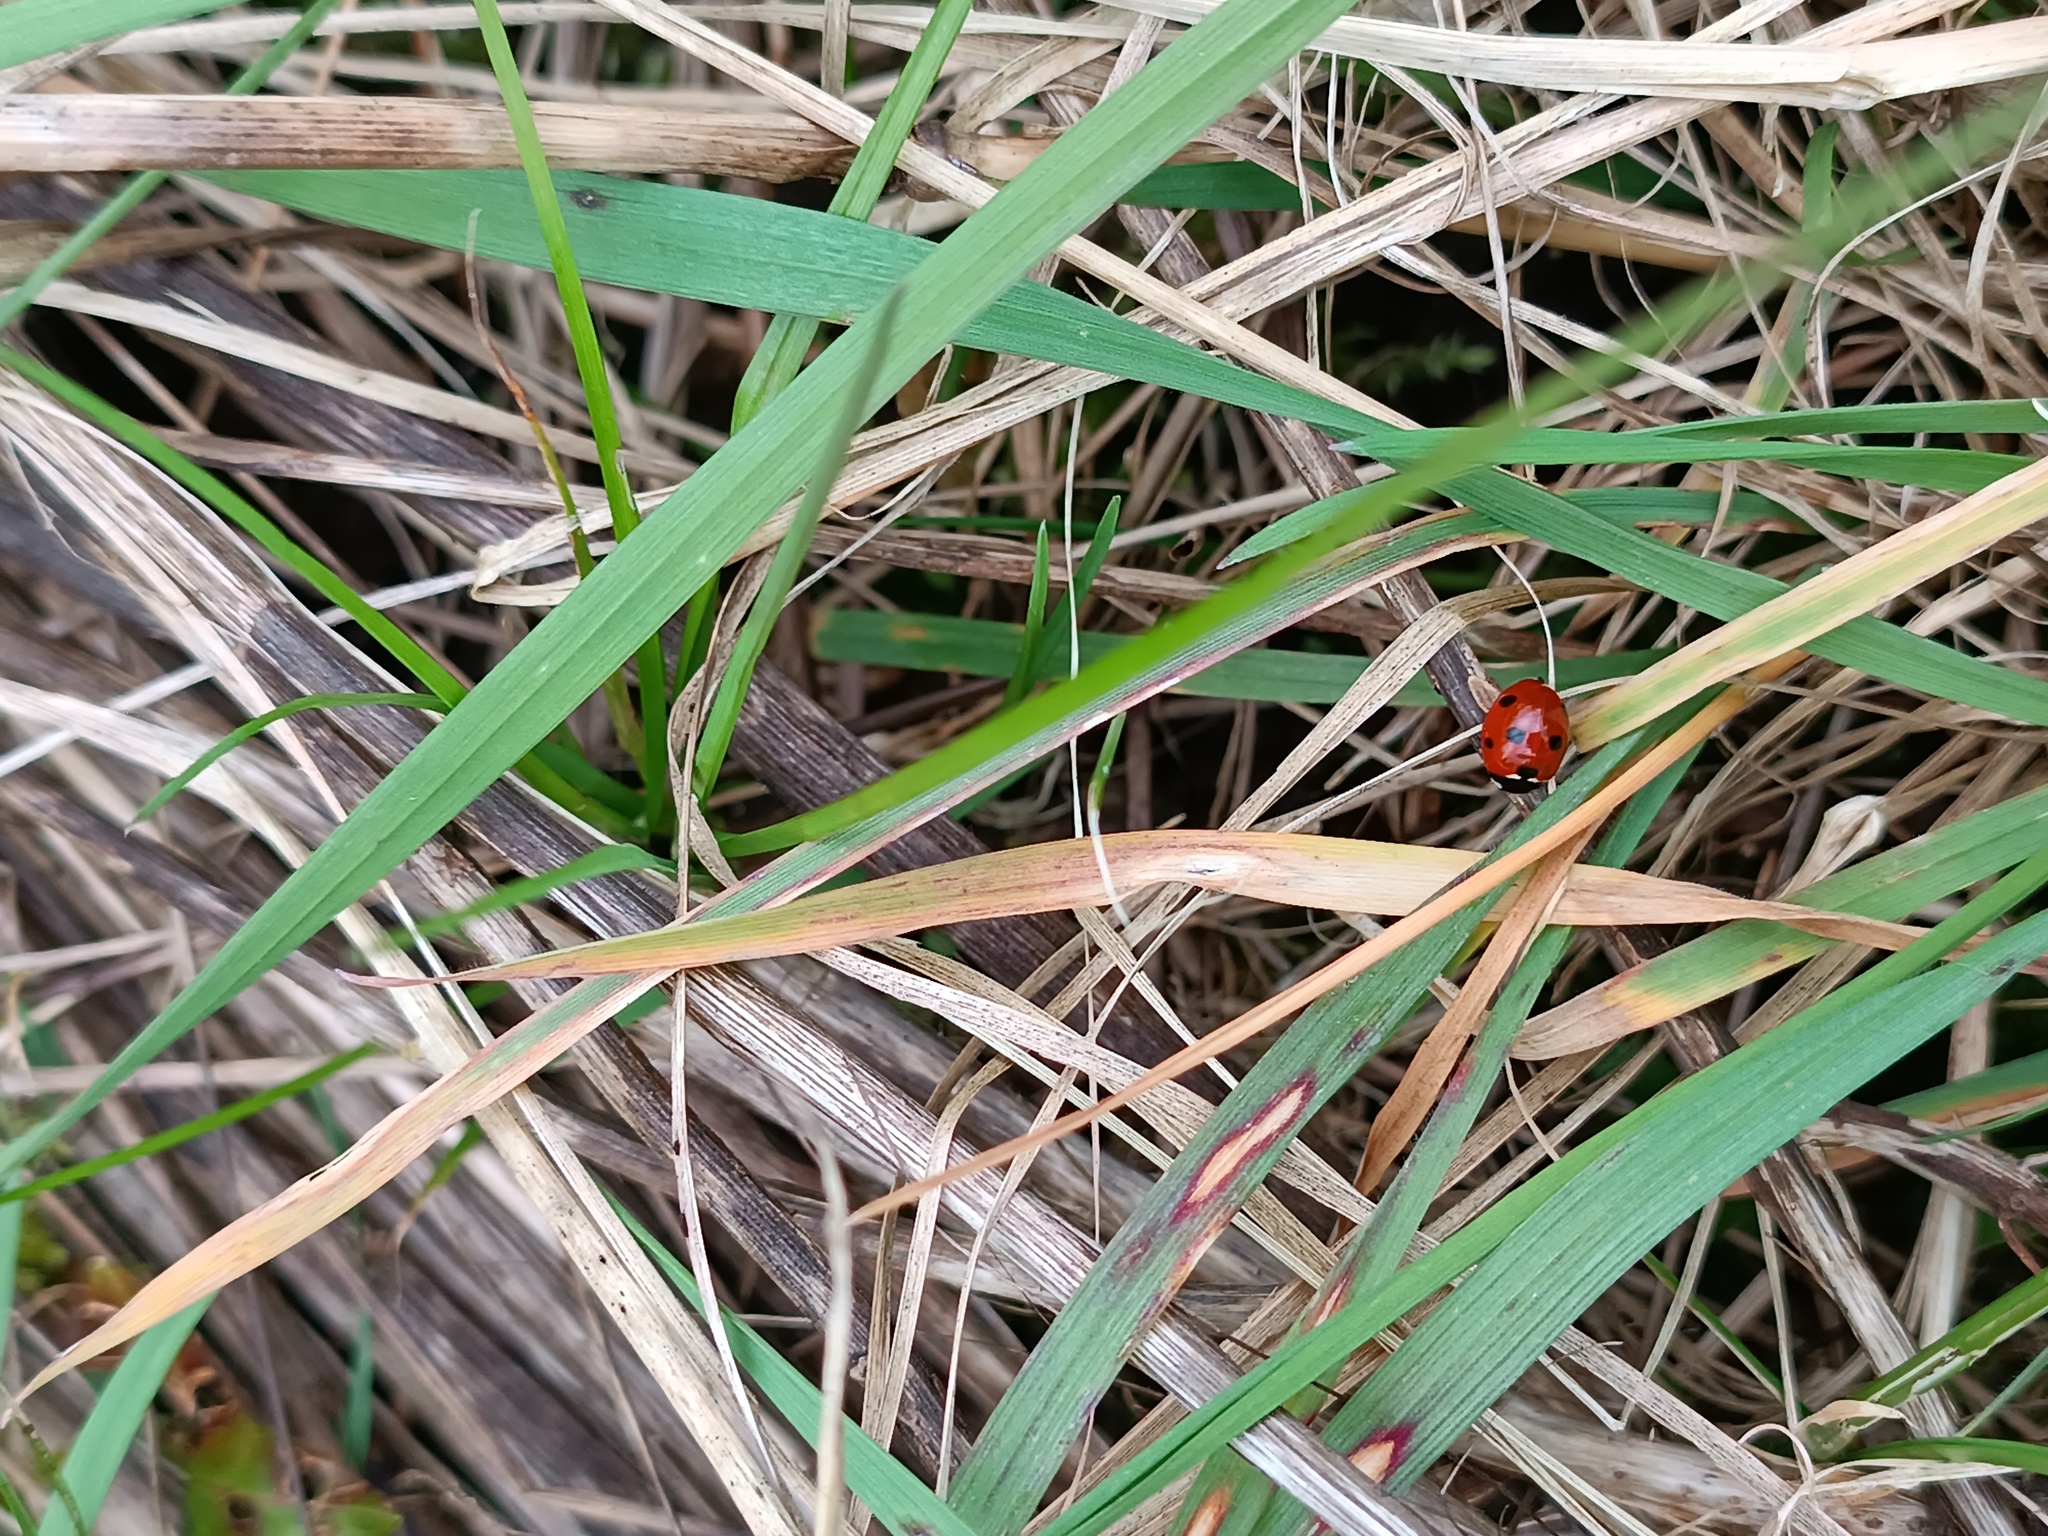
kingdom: Animalia
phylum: Arthropoda
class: Insecta
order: Coleoptera
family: Coccinellidae
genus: Coccinella
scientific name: Coccinella septempunctata
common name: Sevenspotted lady beetle
